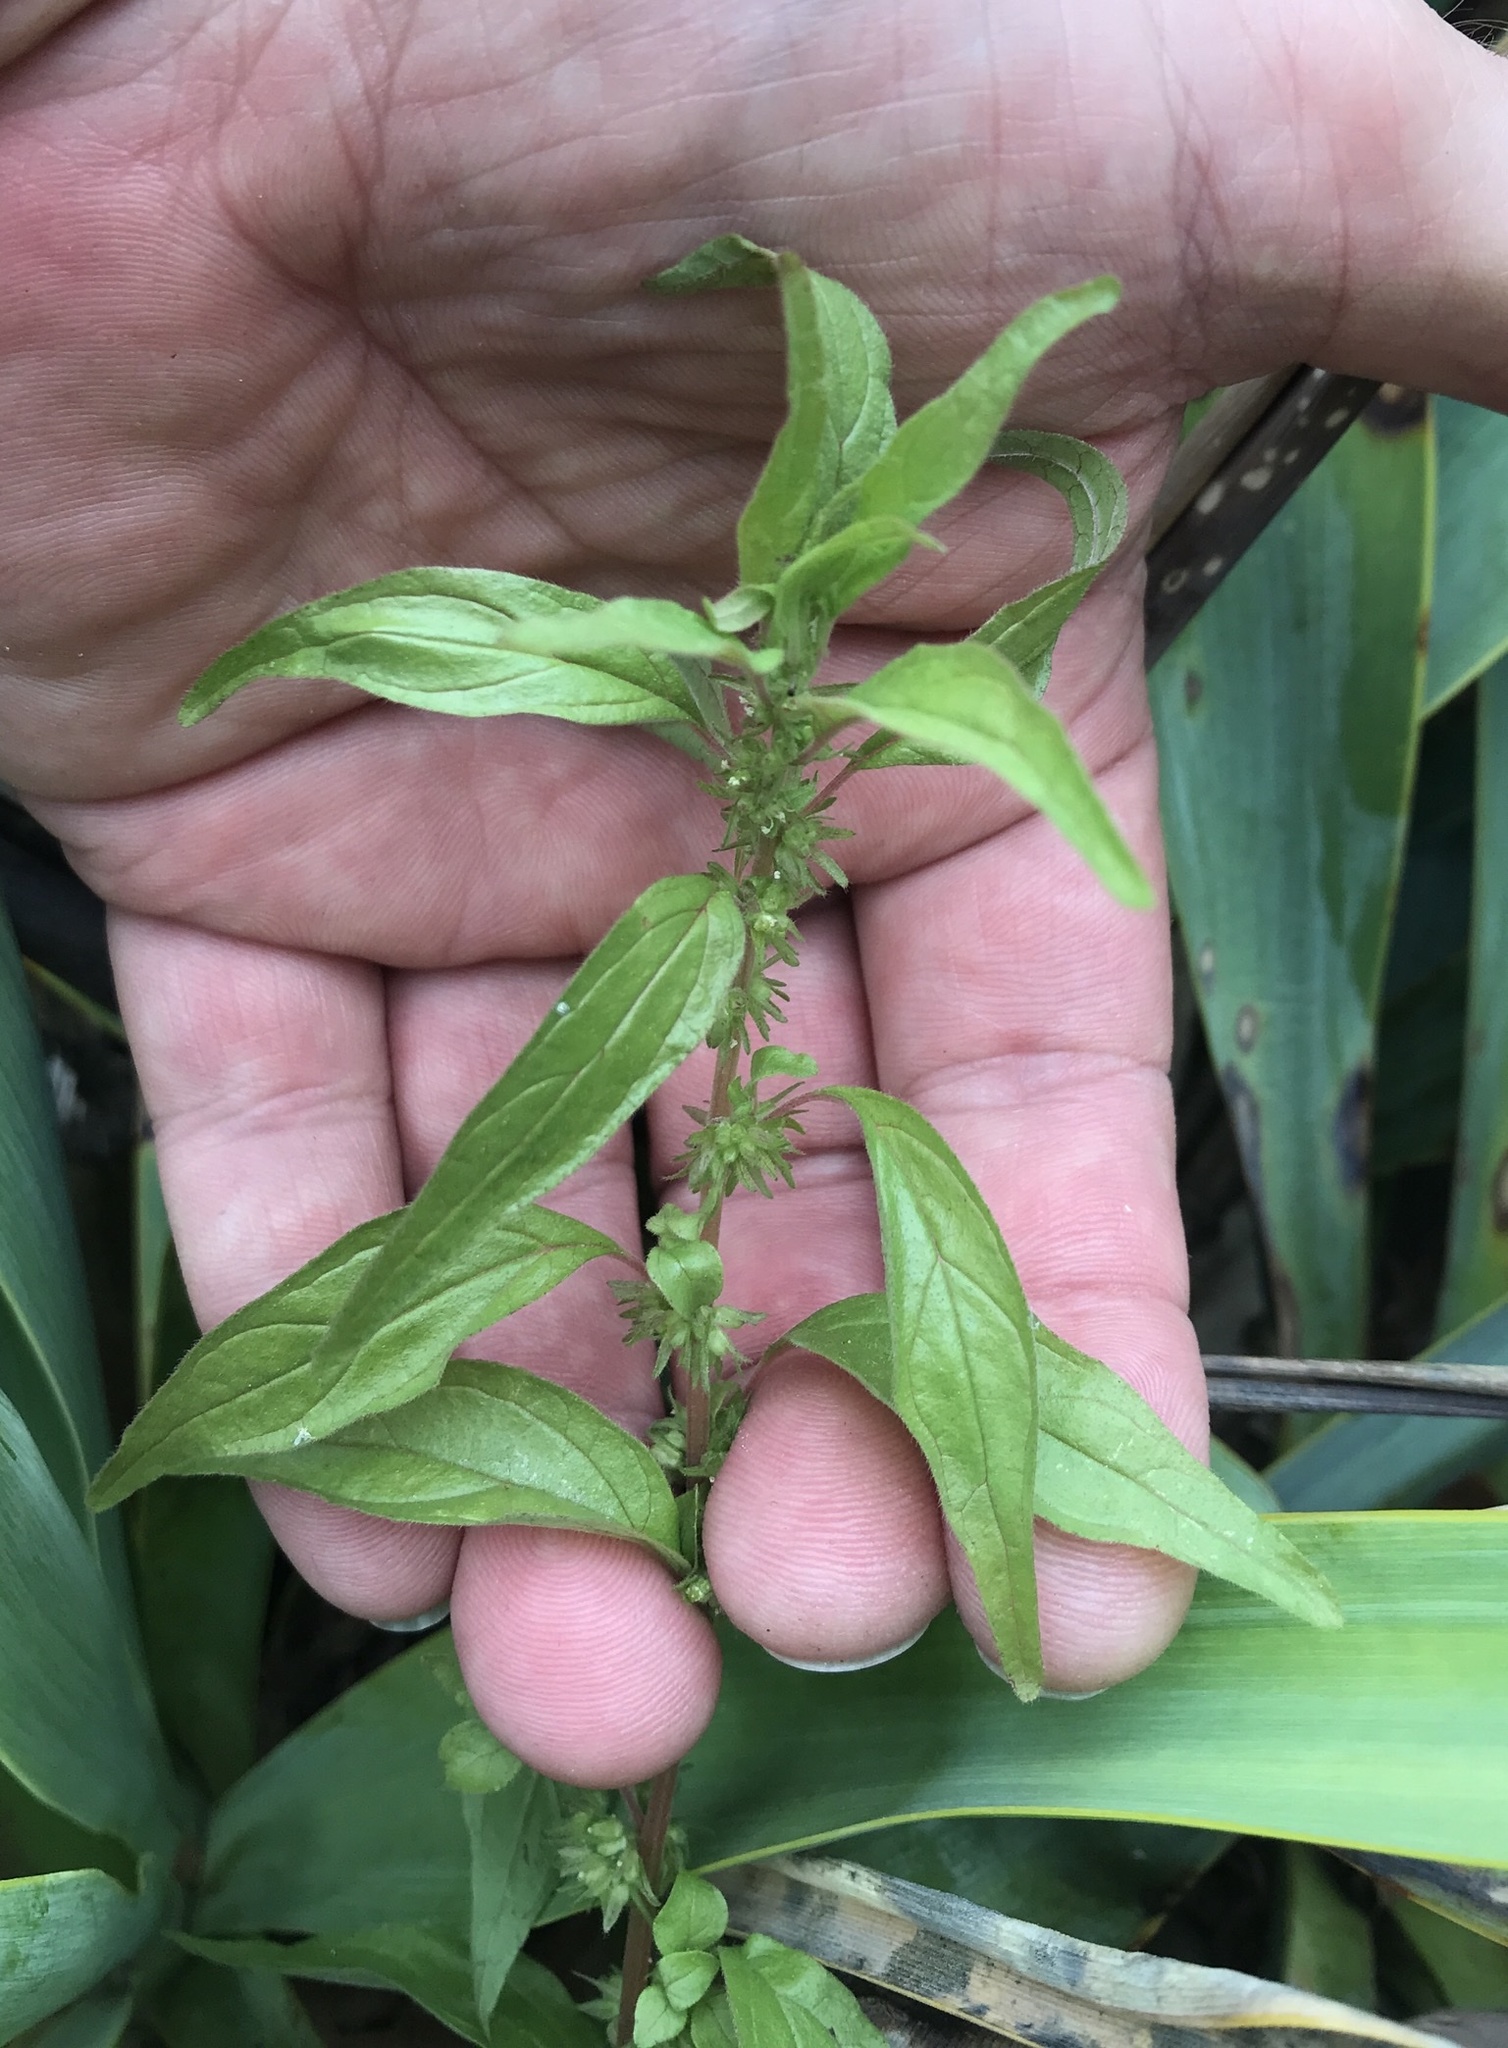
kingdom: Plantae
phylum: Tracheophyta
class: Magnoliopsida
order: Rosales
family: Urticaceae
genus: Parietaria
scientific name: Parietaria pensylvanica
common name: Pennsylvania pellitory
